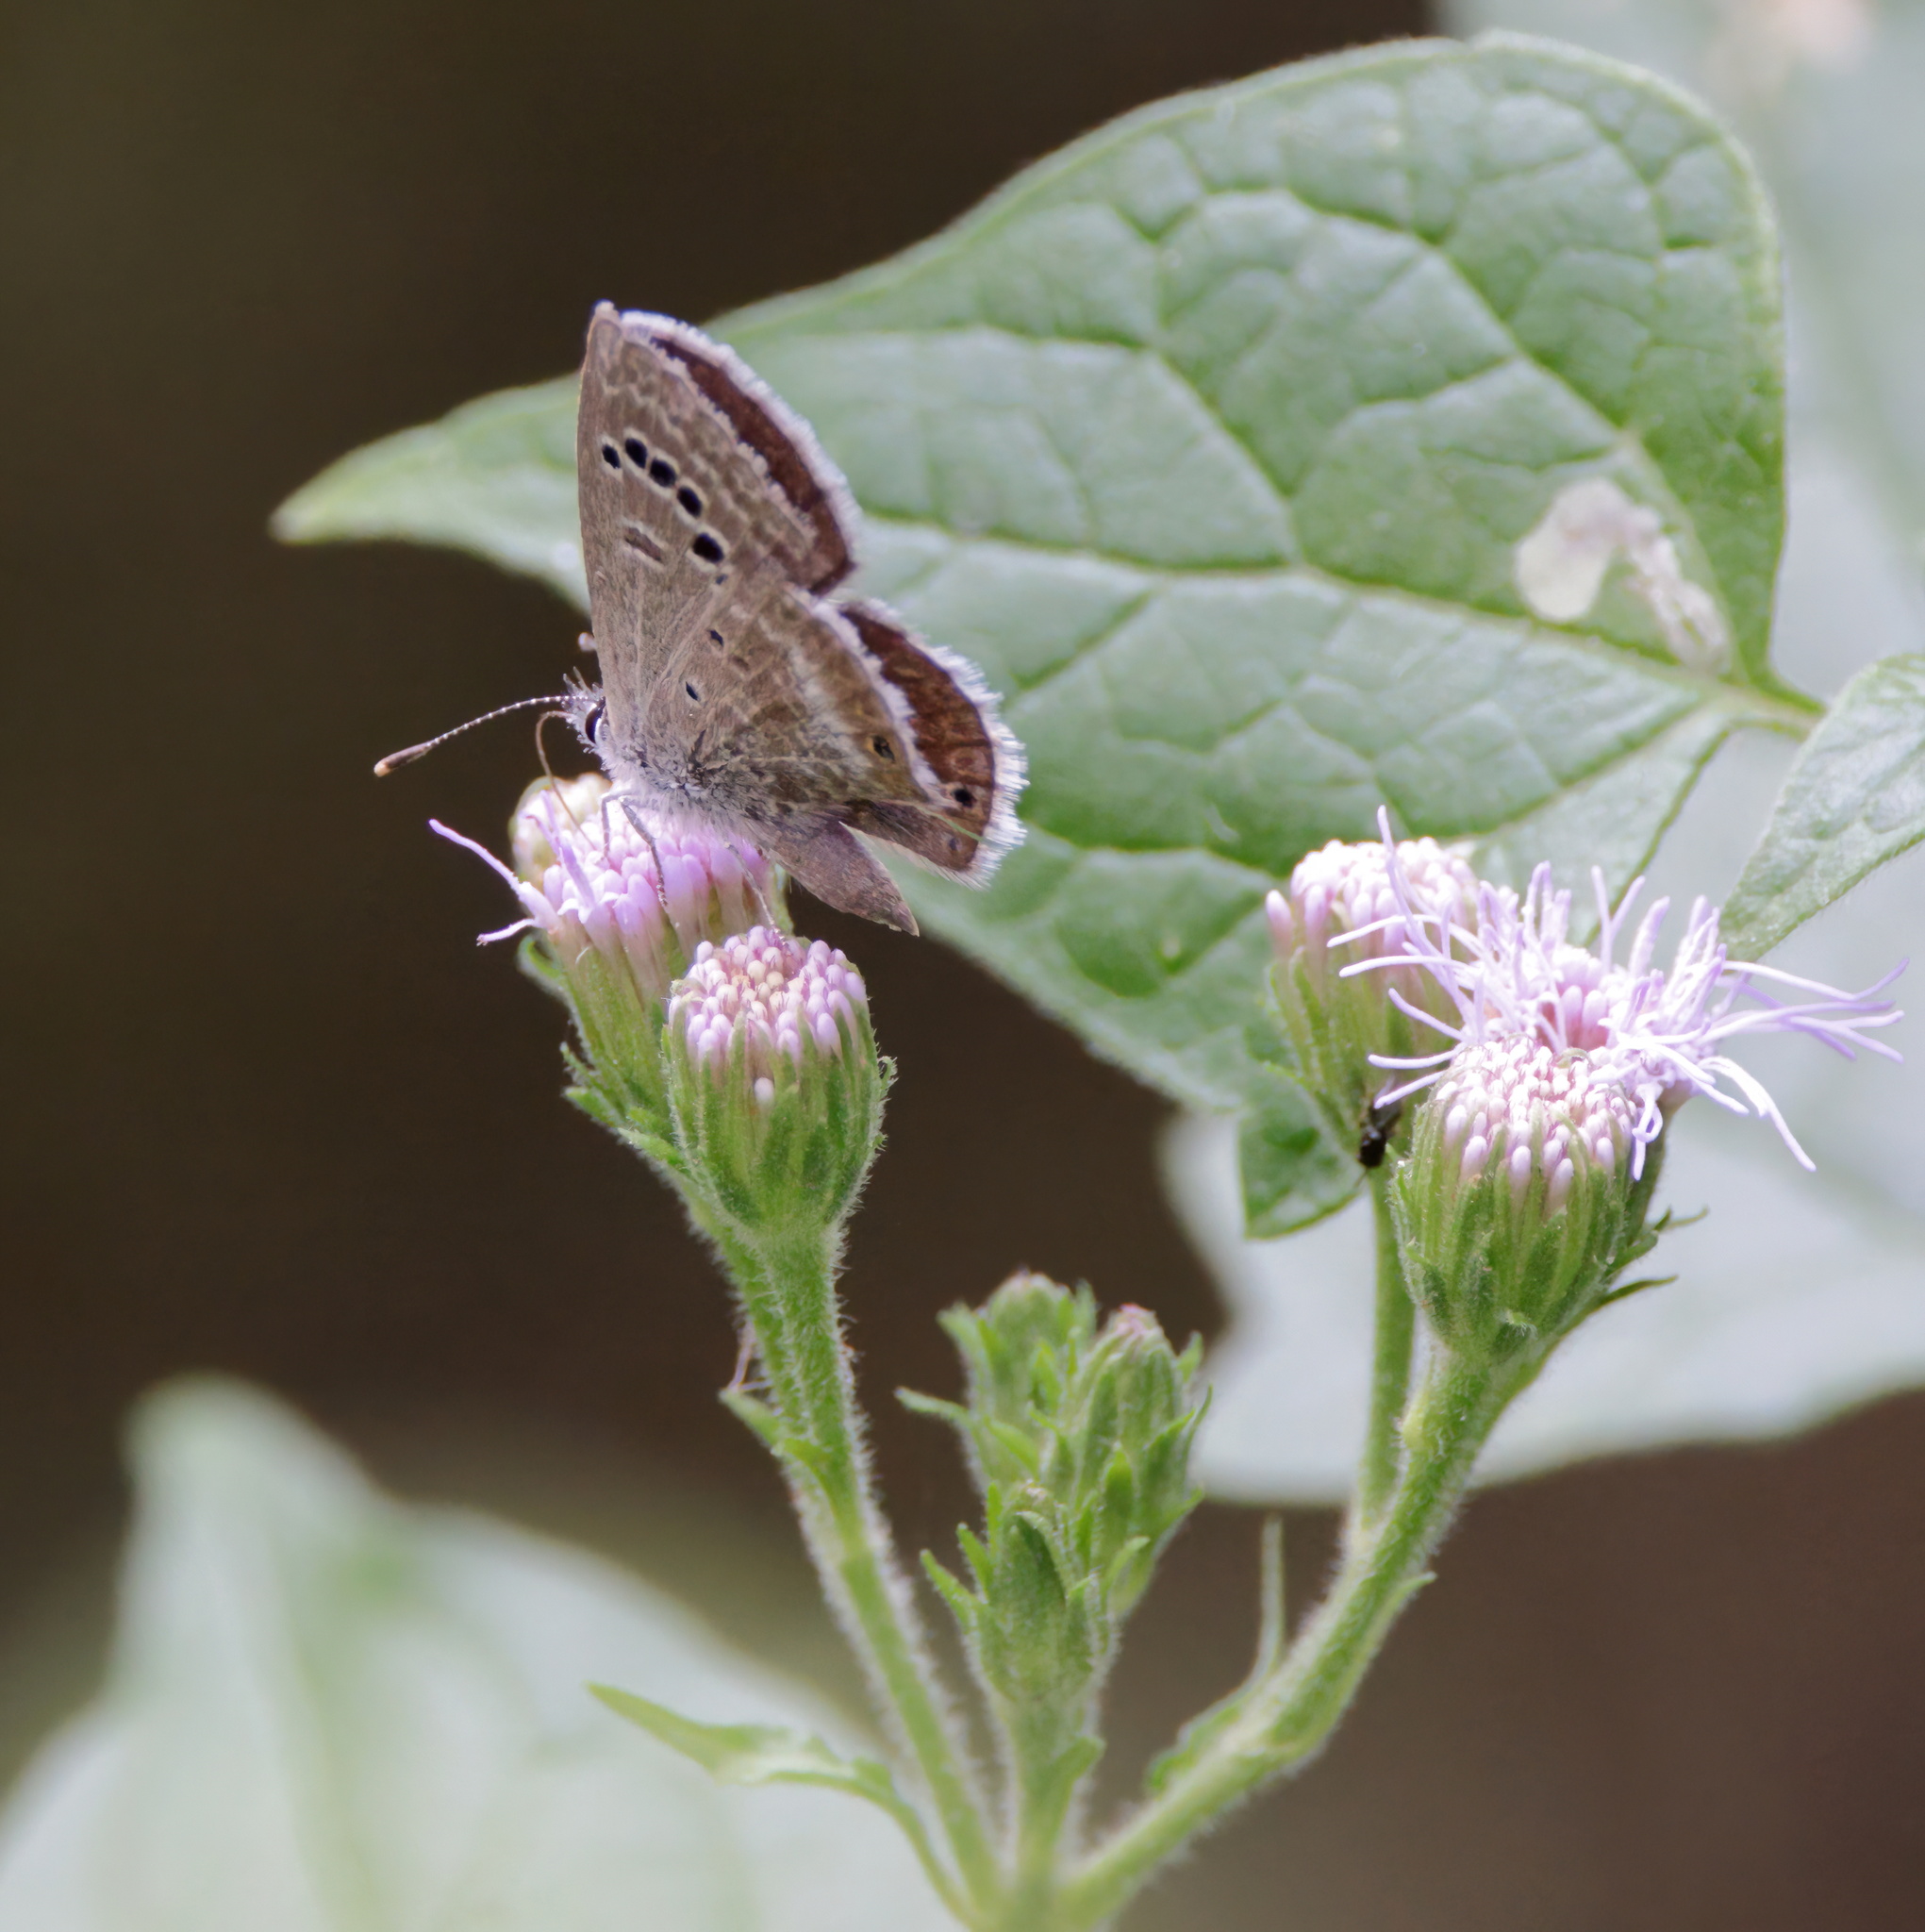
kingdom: Animalia
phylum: Arthropoda
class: Insecta
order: Lepidoptera
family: Lycaenidae
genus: Echinargus
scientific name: Echinargus isola
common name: Reakirt's blue
